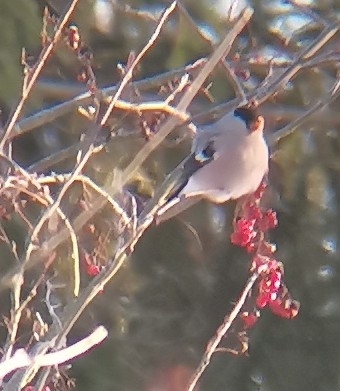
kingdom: Animalia
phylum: Chordata
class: Aves
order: Passeriformes
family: Fringillidae
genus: Pyrrhula
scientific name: Pyrrhula pyrrhula
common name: Eurasian bullfinch
